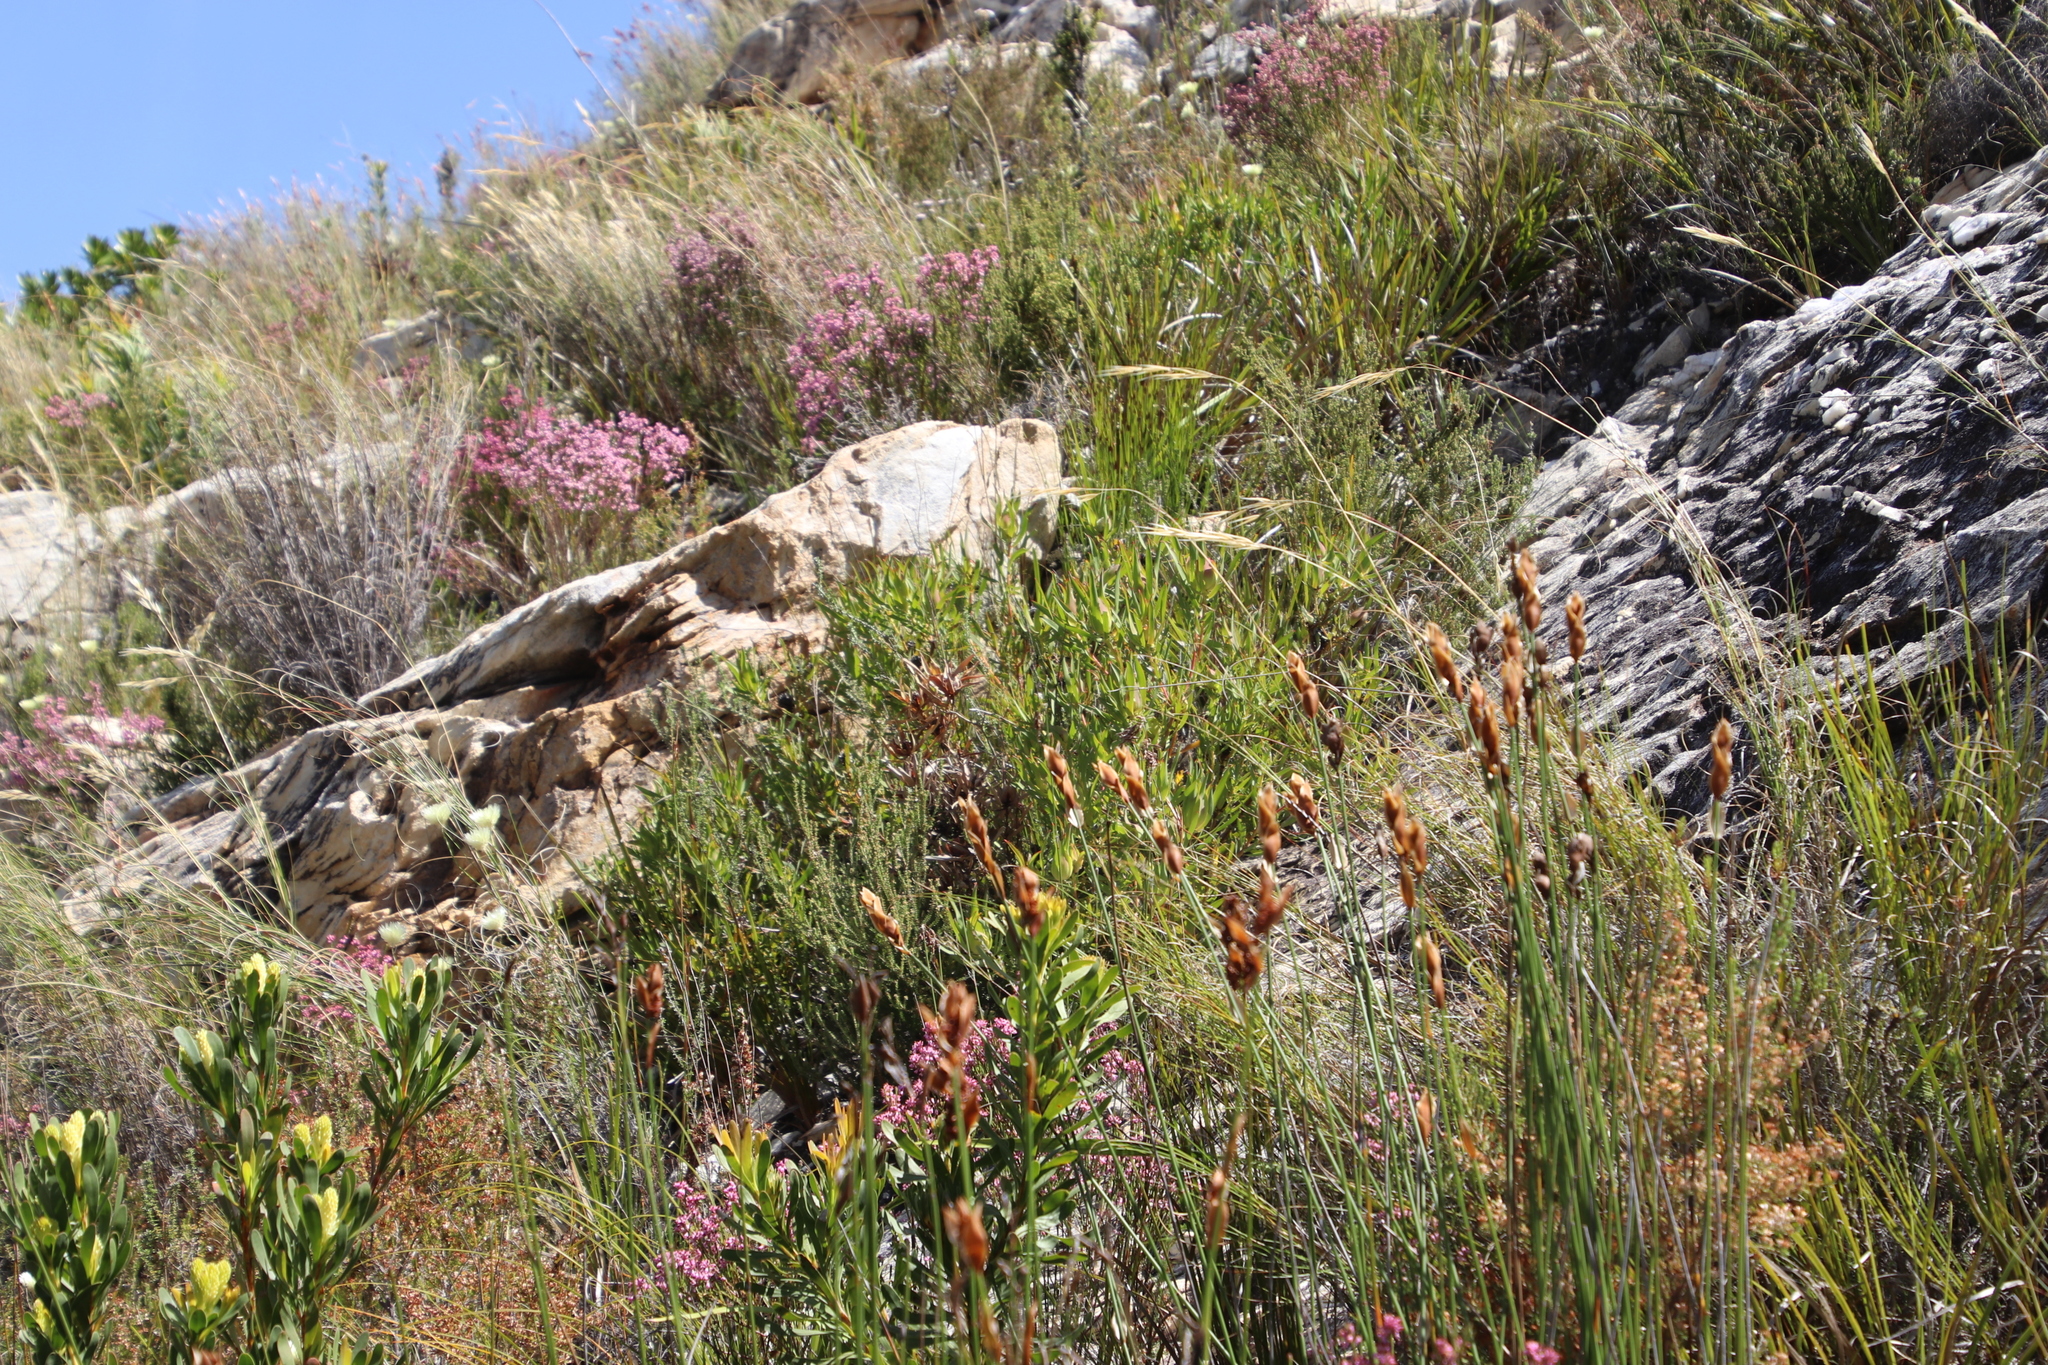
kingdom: Plantae
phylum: Tracheophyta
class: Magnoliopsida
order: Proteales
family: Proteaceae
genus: Leucadendron
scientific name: Leucadendron salignum
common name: Common sunshine conebush
